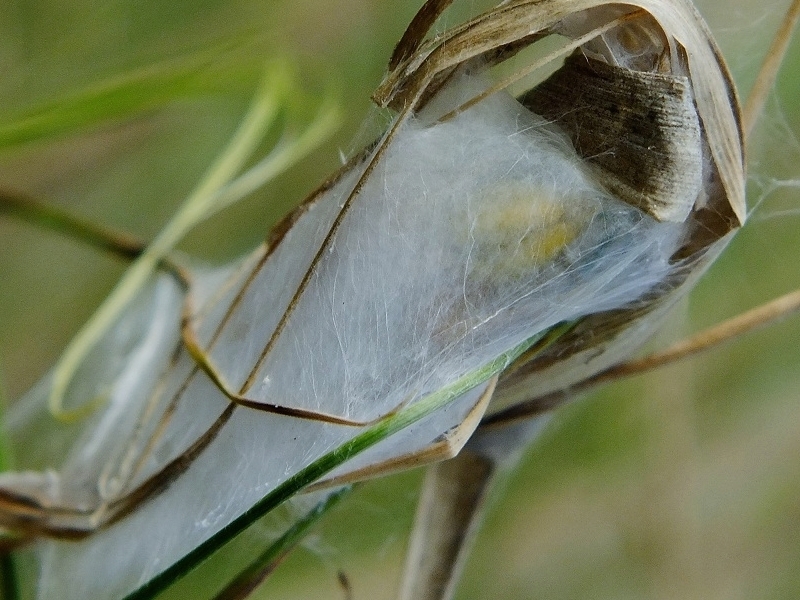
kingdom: Animalia
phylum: Arthropoda
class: Arachnida
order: Araneae
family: Cheiracanthiidae
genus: Cheiracanthium
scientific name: Cheiracanthium punctorium
